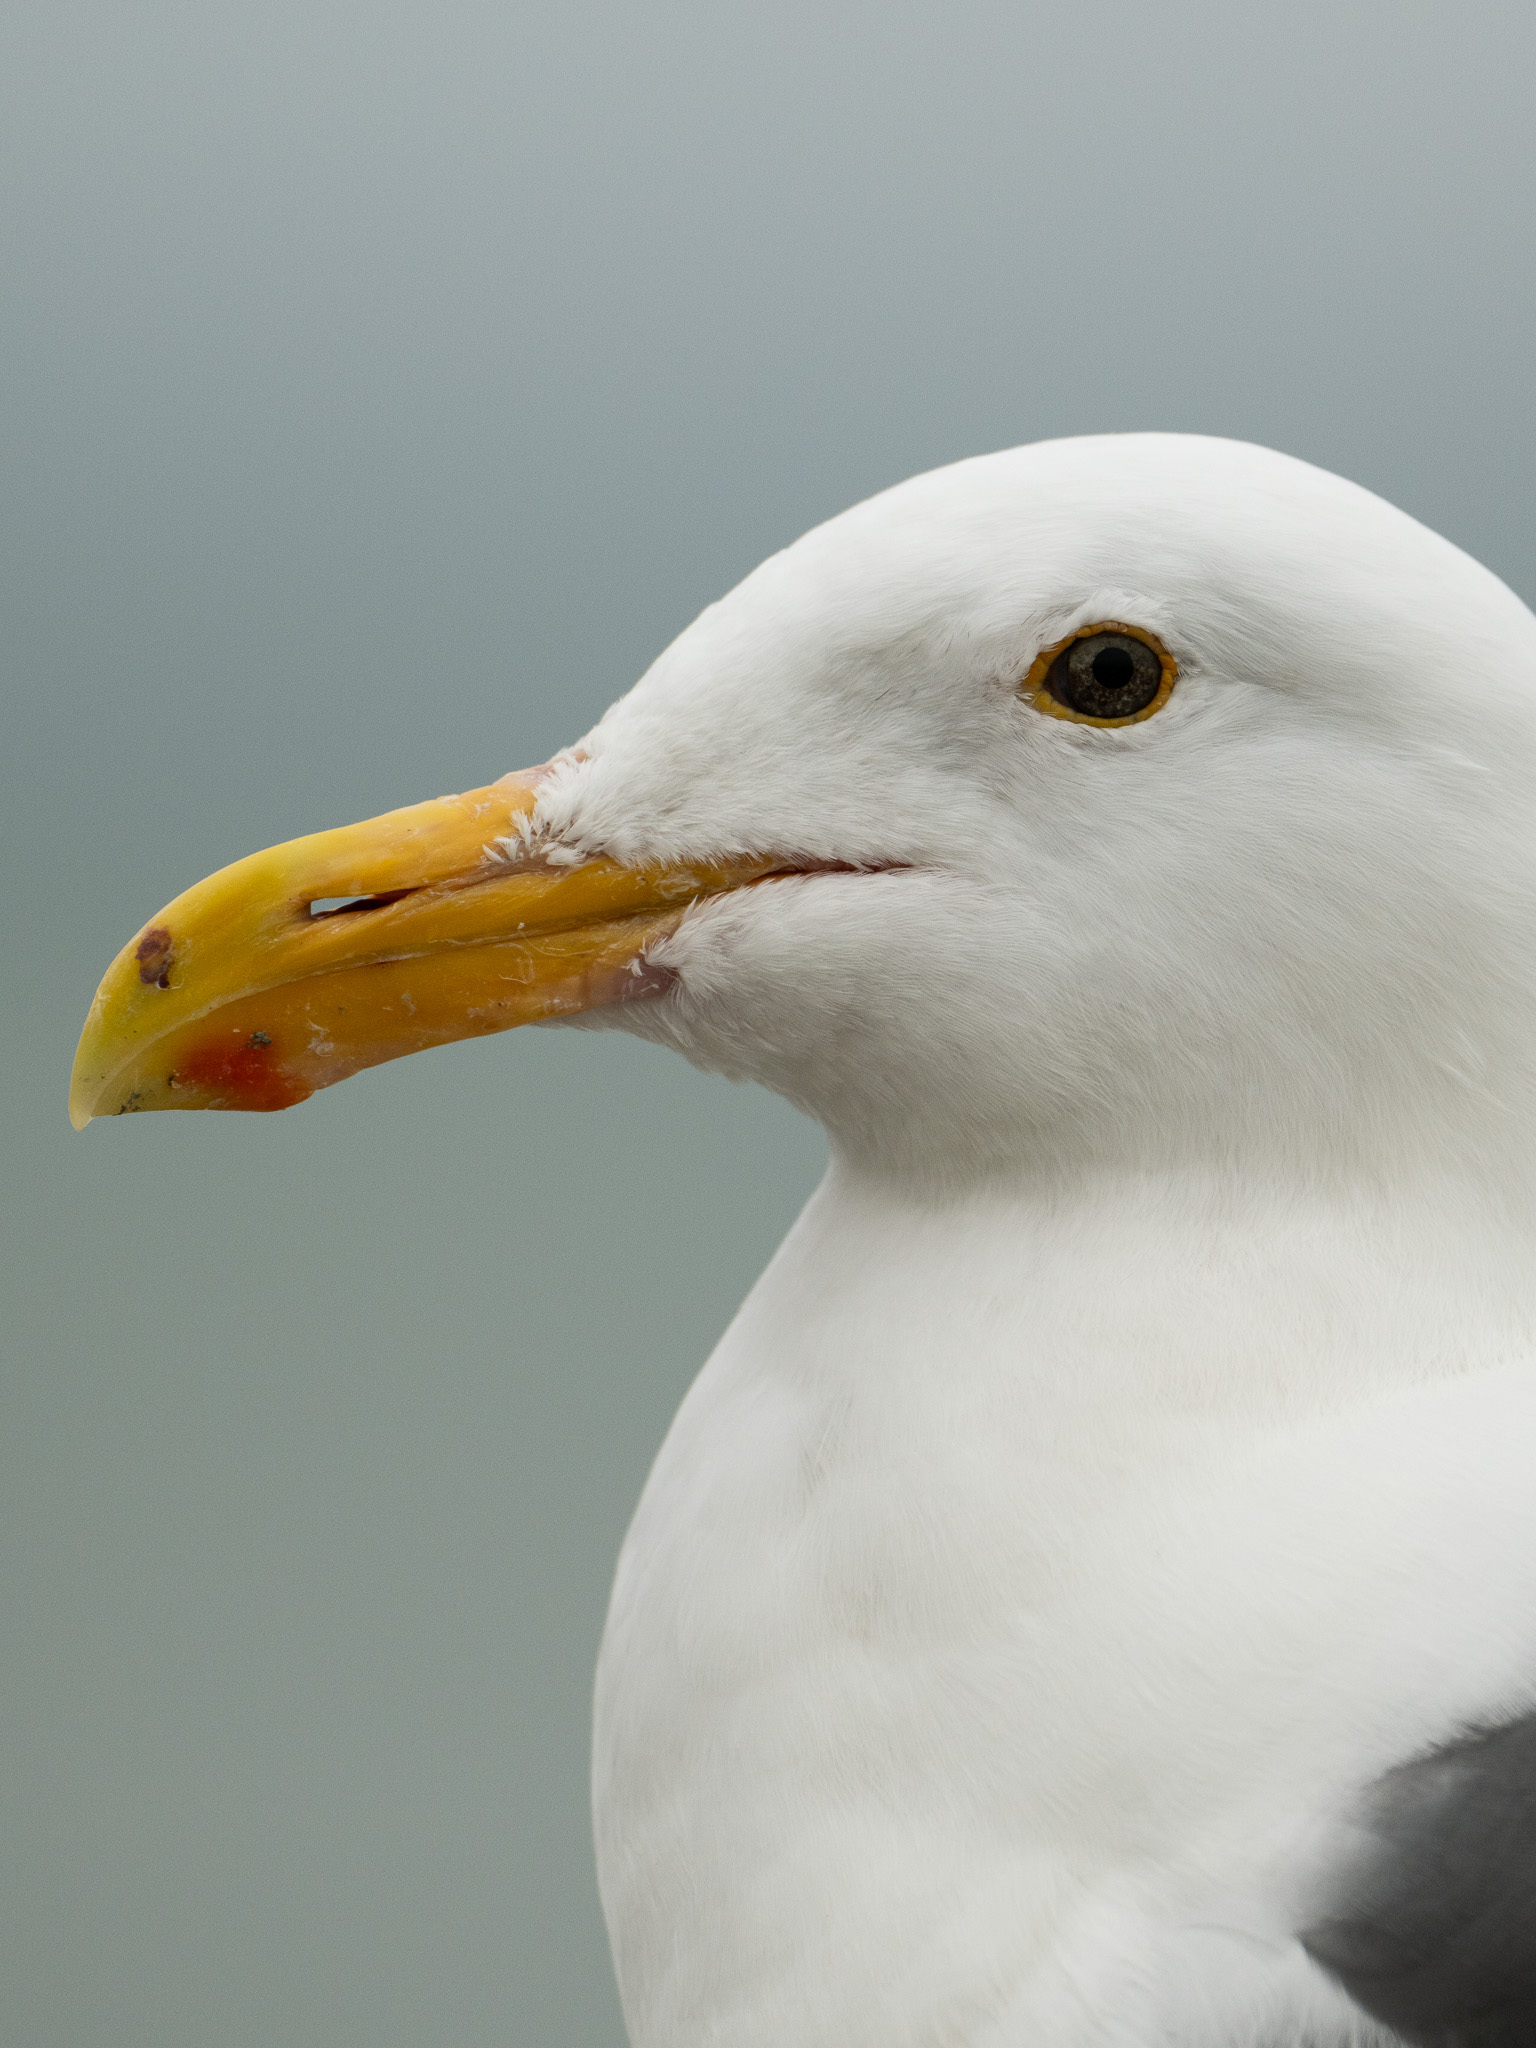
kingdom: Animalia
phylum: Chordata
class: Aves
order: Charadriiformes
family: Laridae
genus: Larus
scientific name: Larus occidentalis
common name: Western gull
